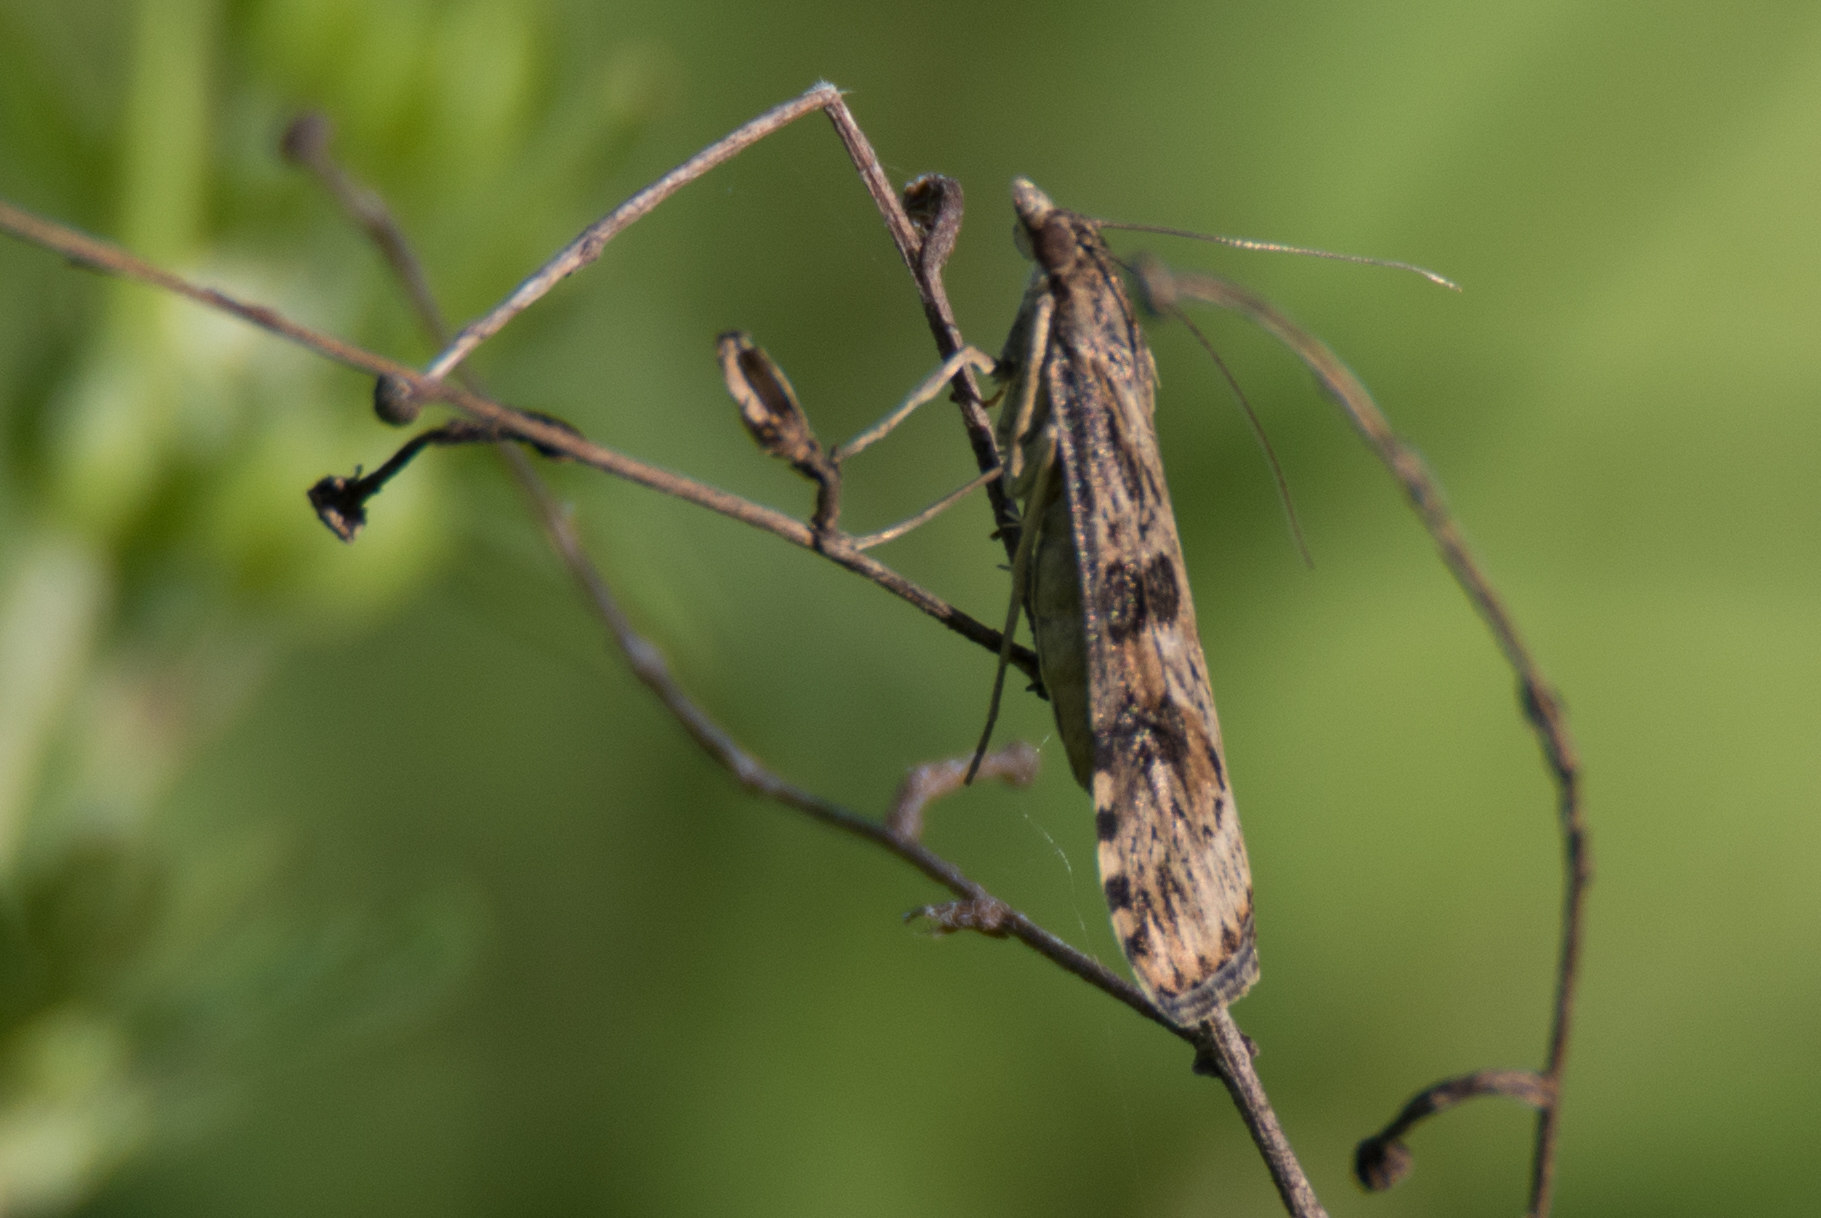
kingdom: Animalia
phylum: Arthropoda
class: Insecta
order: Lepidoptera
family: Crambidae
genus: Nomophila
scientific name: Nomophila nearctica
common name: American rush veneer
